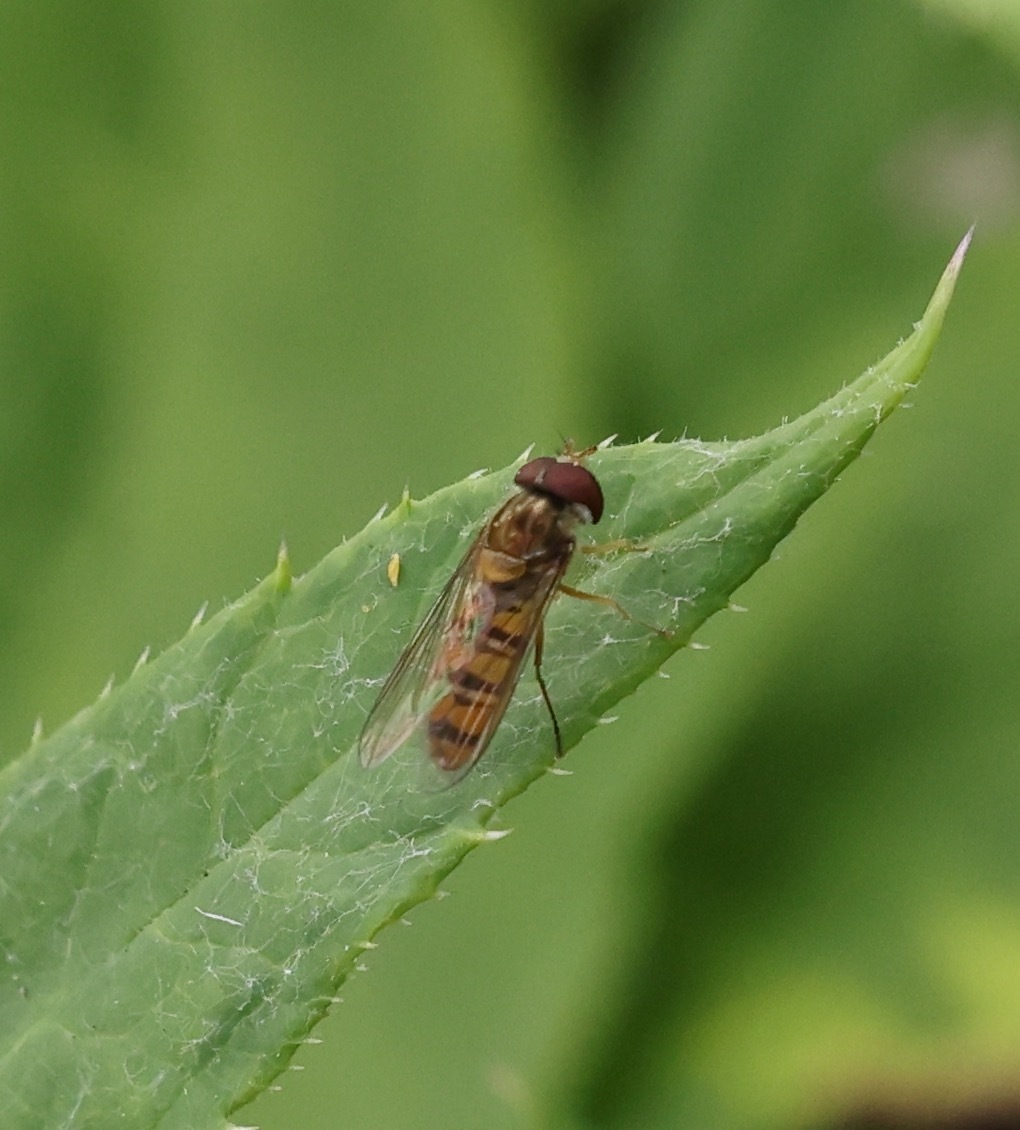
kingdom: Animalia
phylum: Arthropoda
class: Insecta
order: Diptera
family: Syrphidae
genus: Episyrphus
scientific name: Episyrphus balteatus
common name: Marmalade hoverfly
